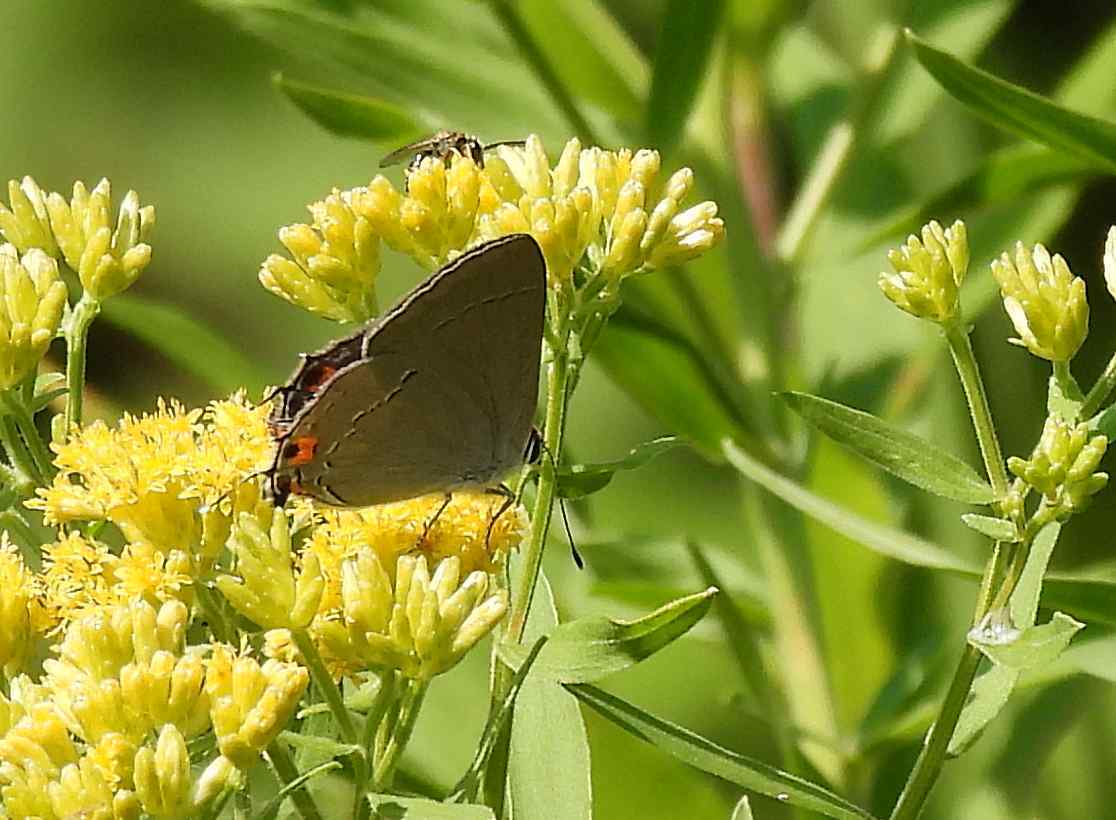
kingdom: Animalia
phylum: Arthropoda
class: Insecta
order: Lepidoptera
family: Lycaenidae
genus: Strymon
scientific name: Strymon melinus
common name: Gray hairstreak
